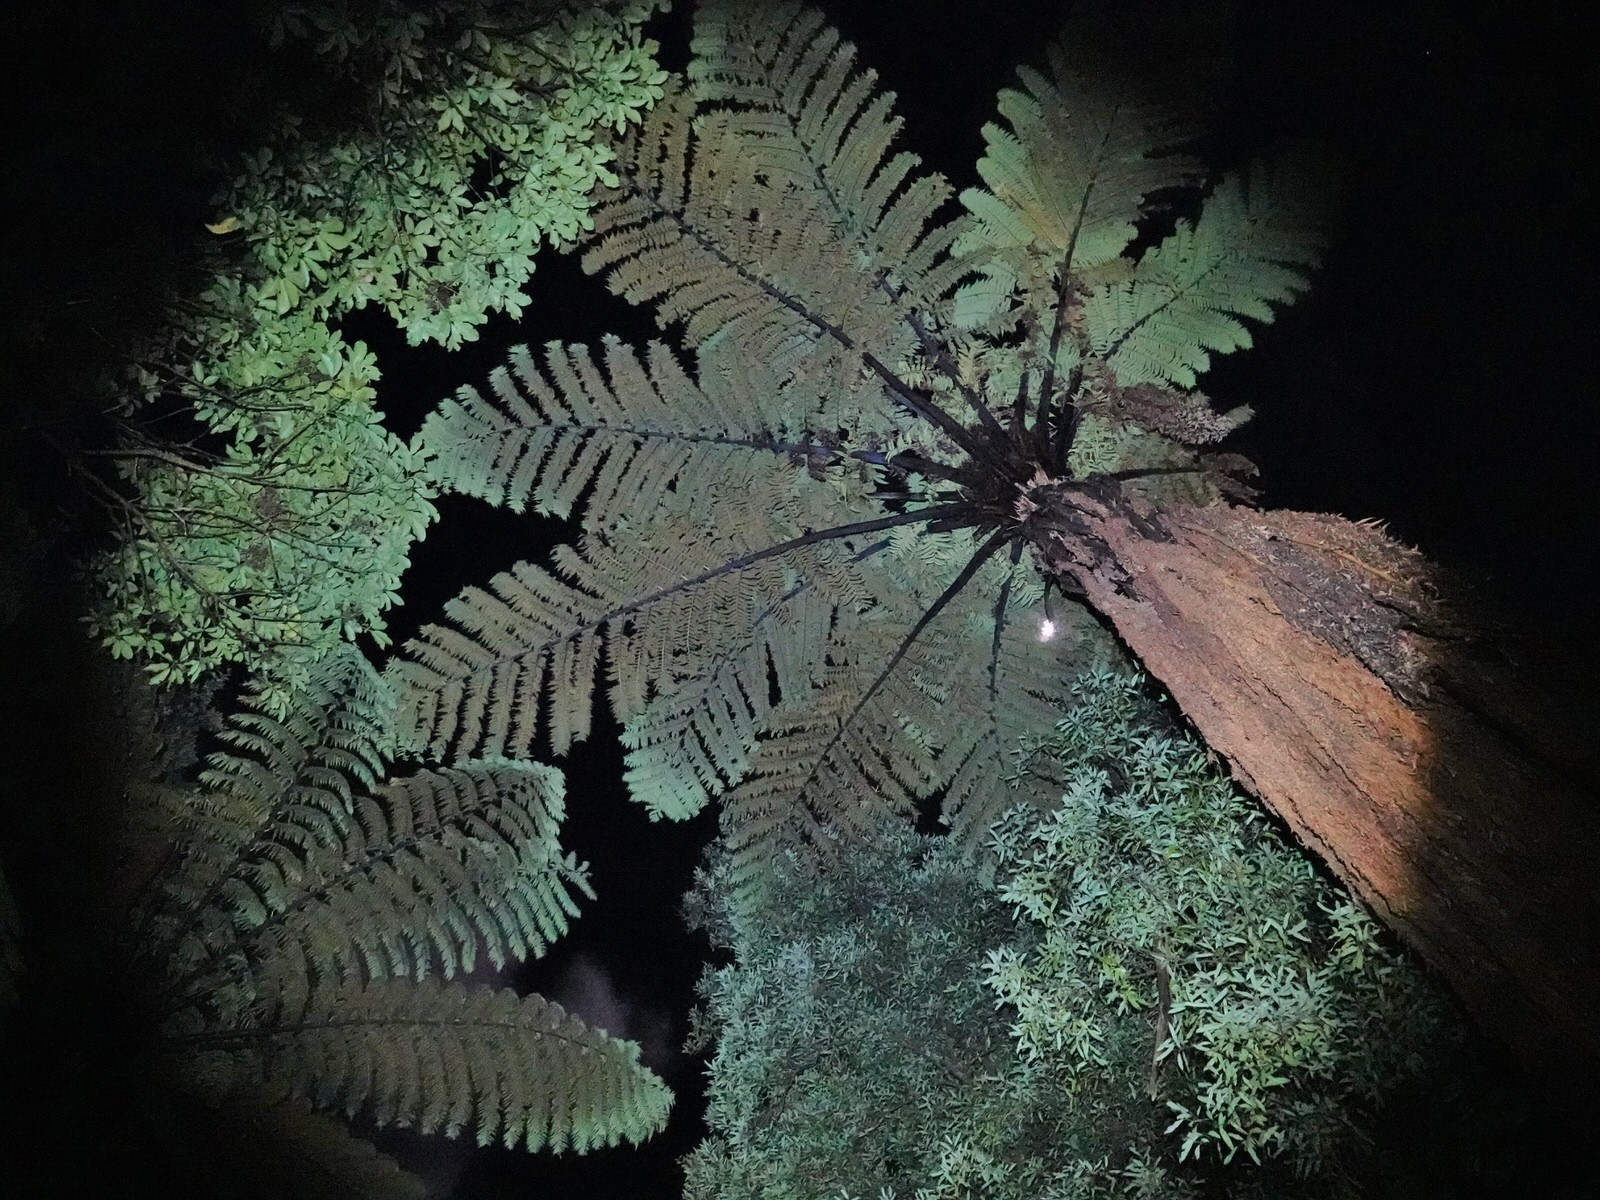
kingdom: Plantae
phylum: Tracheophyta
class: Polypodiopsida
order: Cyatheales
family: Cyatheaceae
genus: Sphaeropteris
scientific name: Sphaeropteris medullaris
